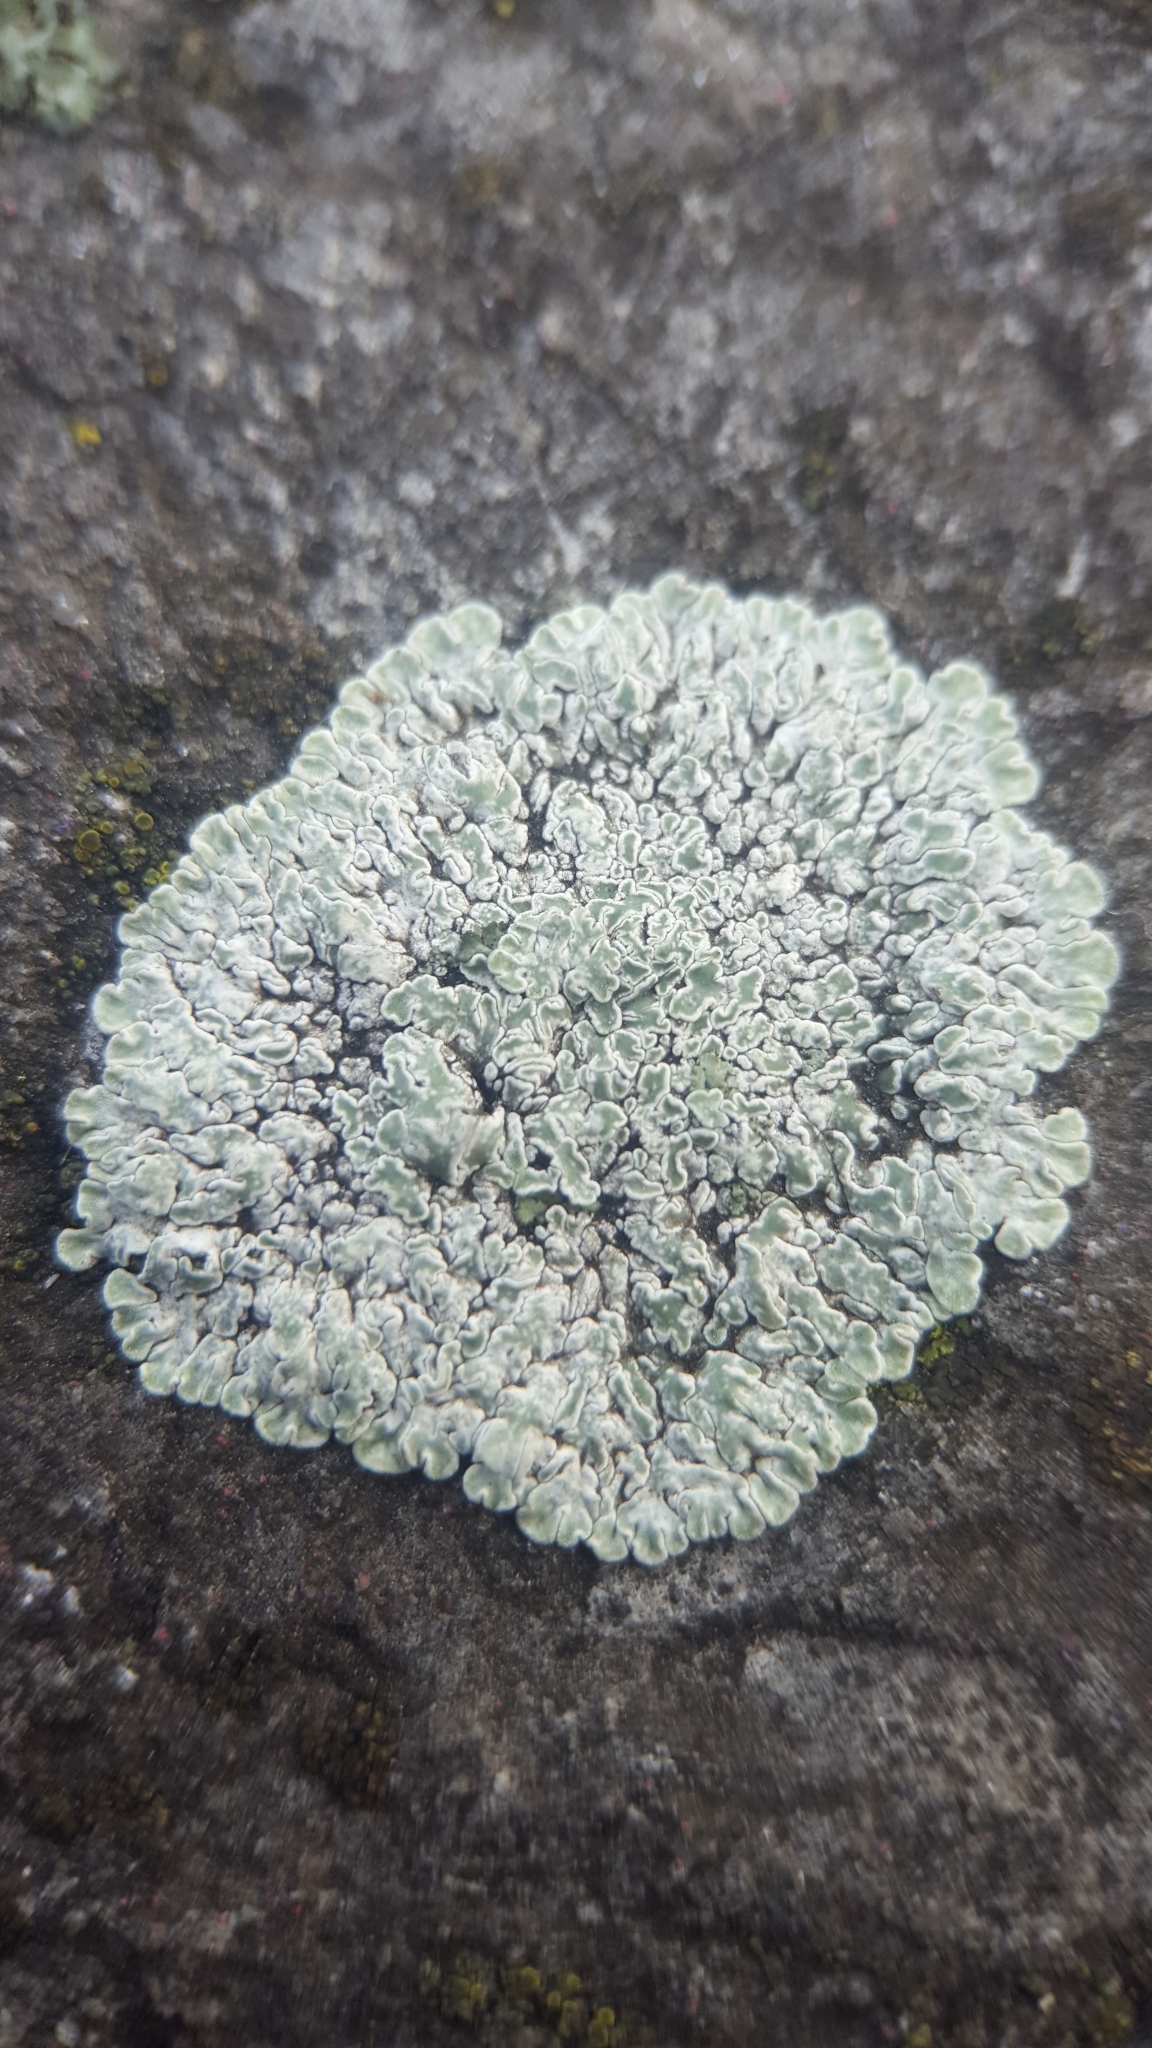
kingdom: Fungi
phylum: Ascomycota
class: Lecanoromycetes
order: Lecanorales
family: Lecanoraceae
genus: Protoparmeliopsis
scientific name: Protoparmeliopsis muralis
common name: Stonewall rim lichen
